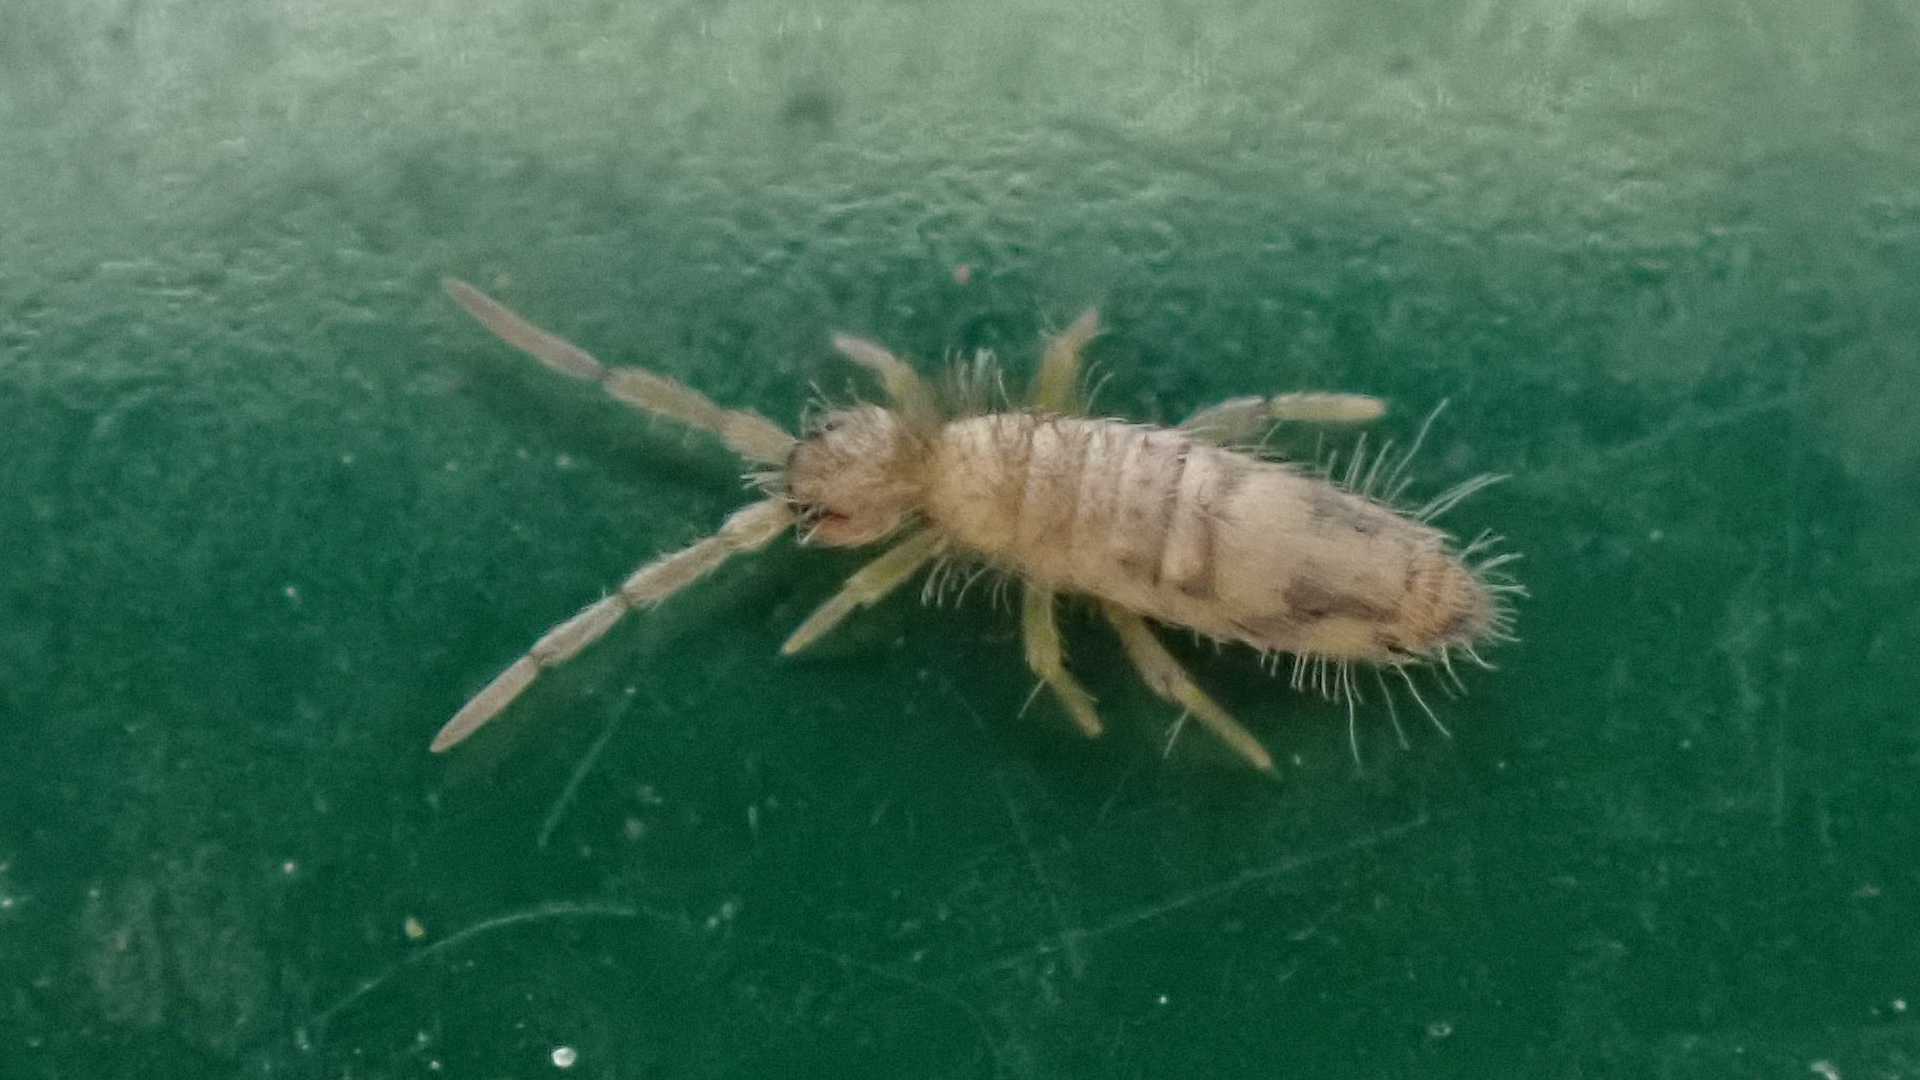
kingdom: Animalia
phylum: Arthropoda
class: Collembola
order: Entomobryomorpha
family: Entomobryidae
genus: Entomobrya
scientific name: Entomobrya nivalis
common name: Cosmopolitan springtail
